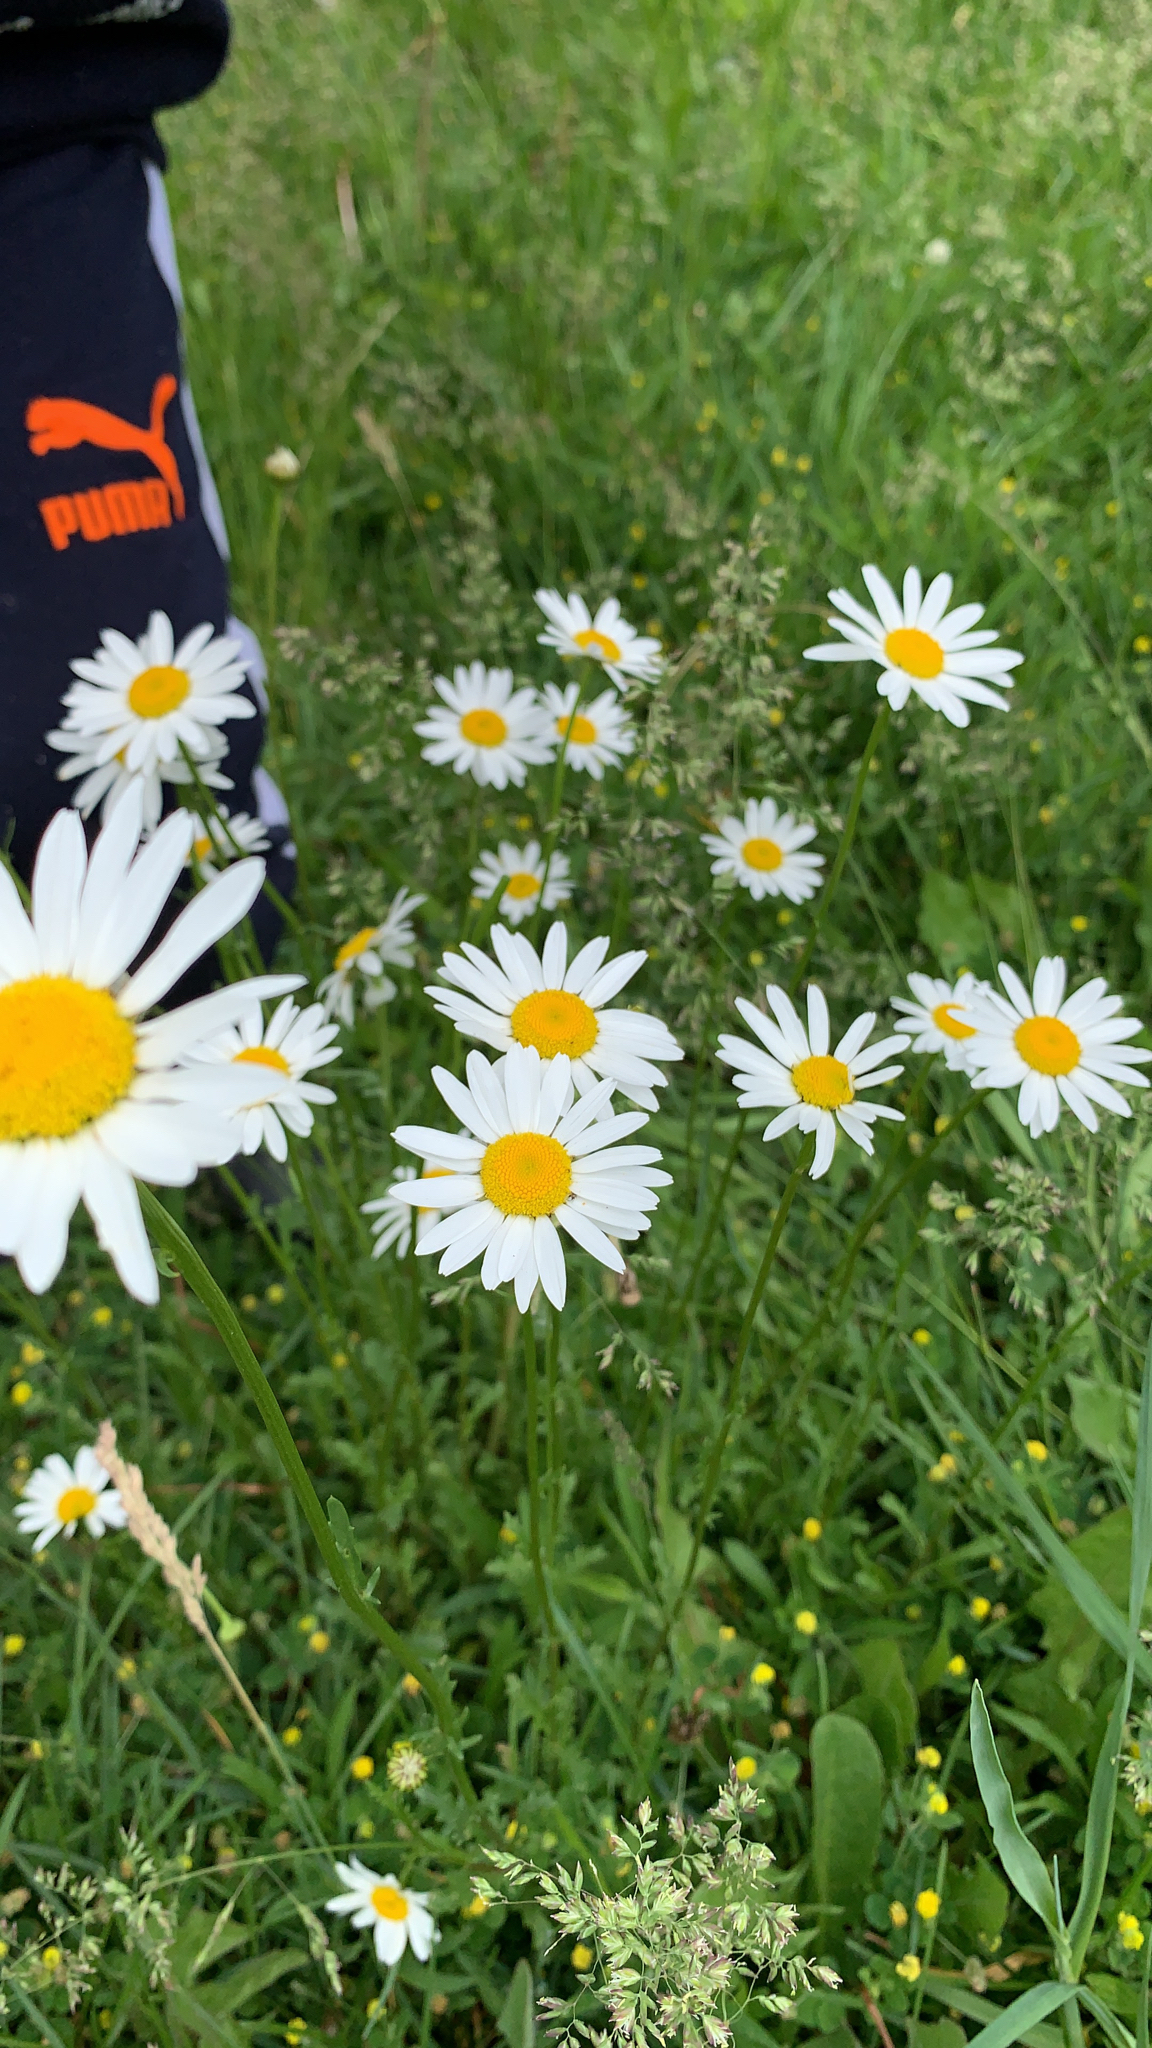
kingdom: Plantae
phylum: Tracheophyta
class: Magnoliopsida
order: Asterales
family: Asteraceae
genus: Leucanthemum
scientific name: Leucanthemum vulgare
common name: Oxeye daisy
